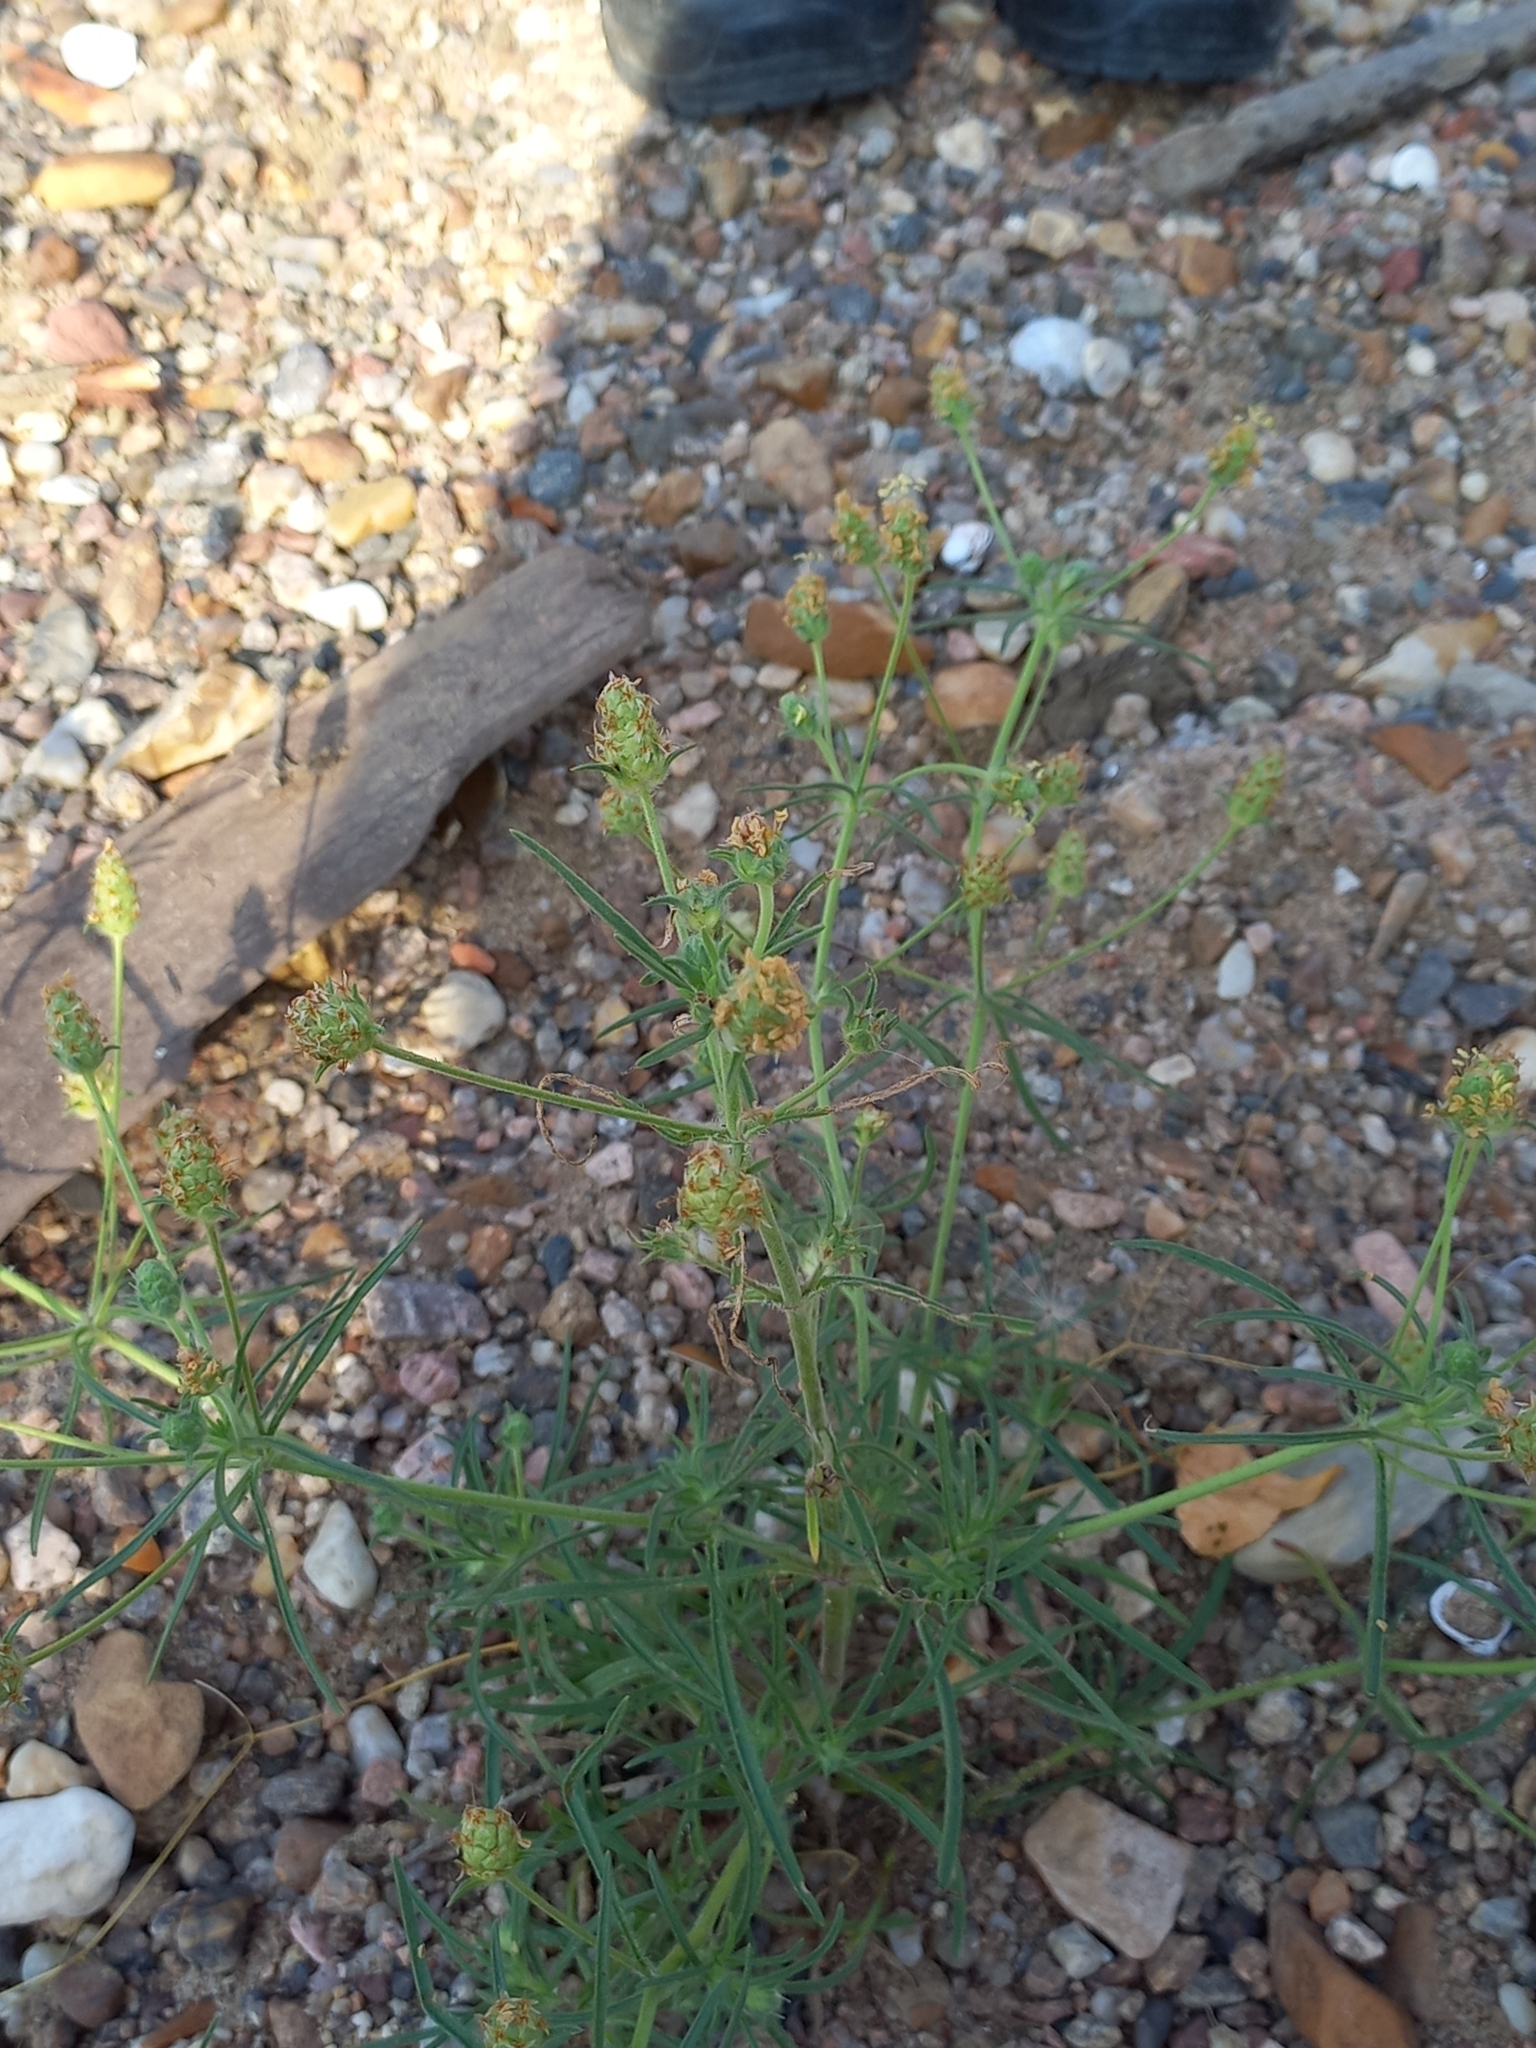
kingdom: Plantae
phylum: Tracheophyta
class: Magnoliopsida
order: Lamiales
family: Plantaginaceae
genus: Plantago
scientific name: Plantago arenaria
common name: Branched plantain
